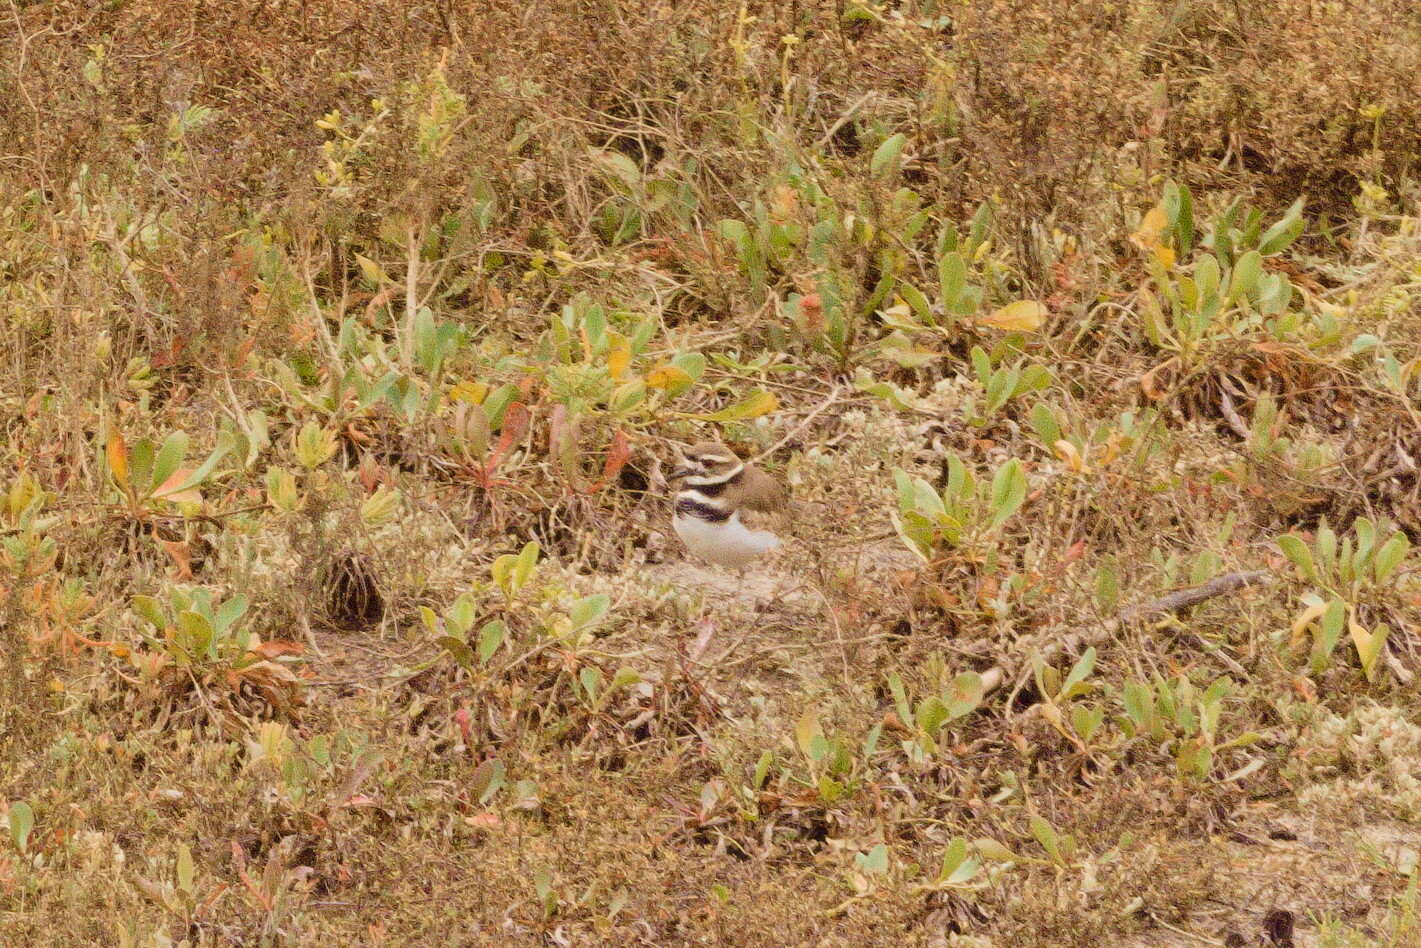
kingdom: Animalia
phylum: Chordata
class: Aves
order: Charadriiformes
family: Charadriidae
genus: Charadrius
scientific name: Charadrius vociferus
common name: Killdeer
